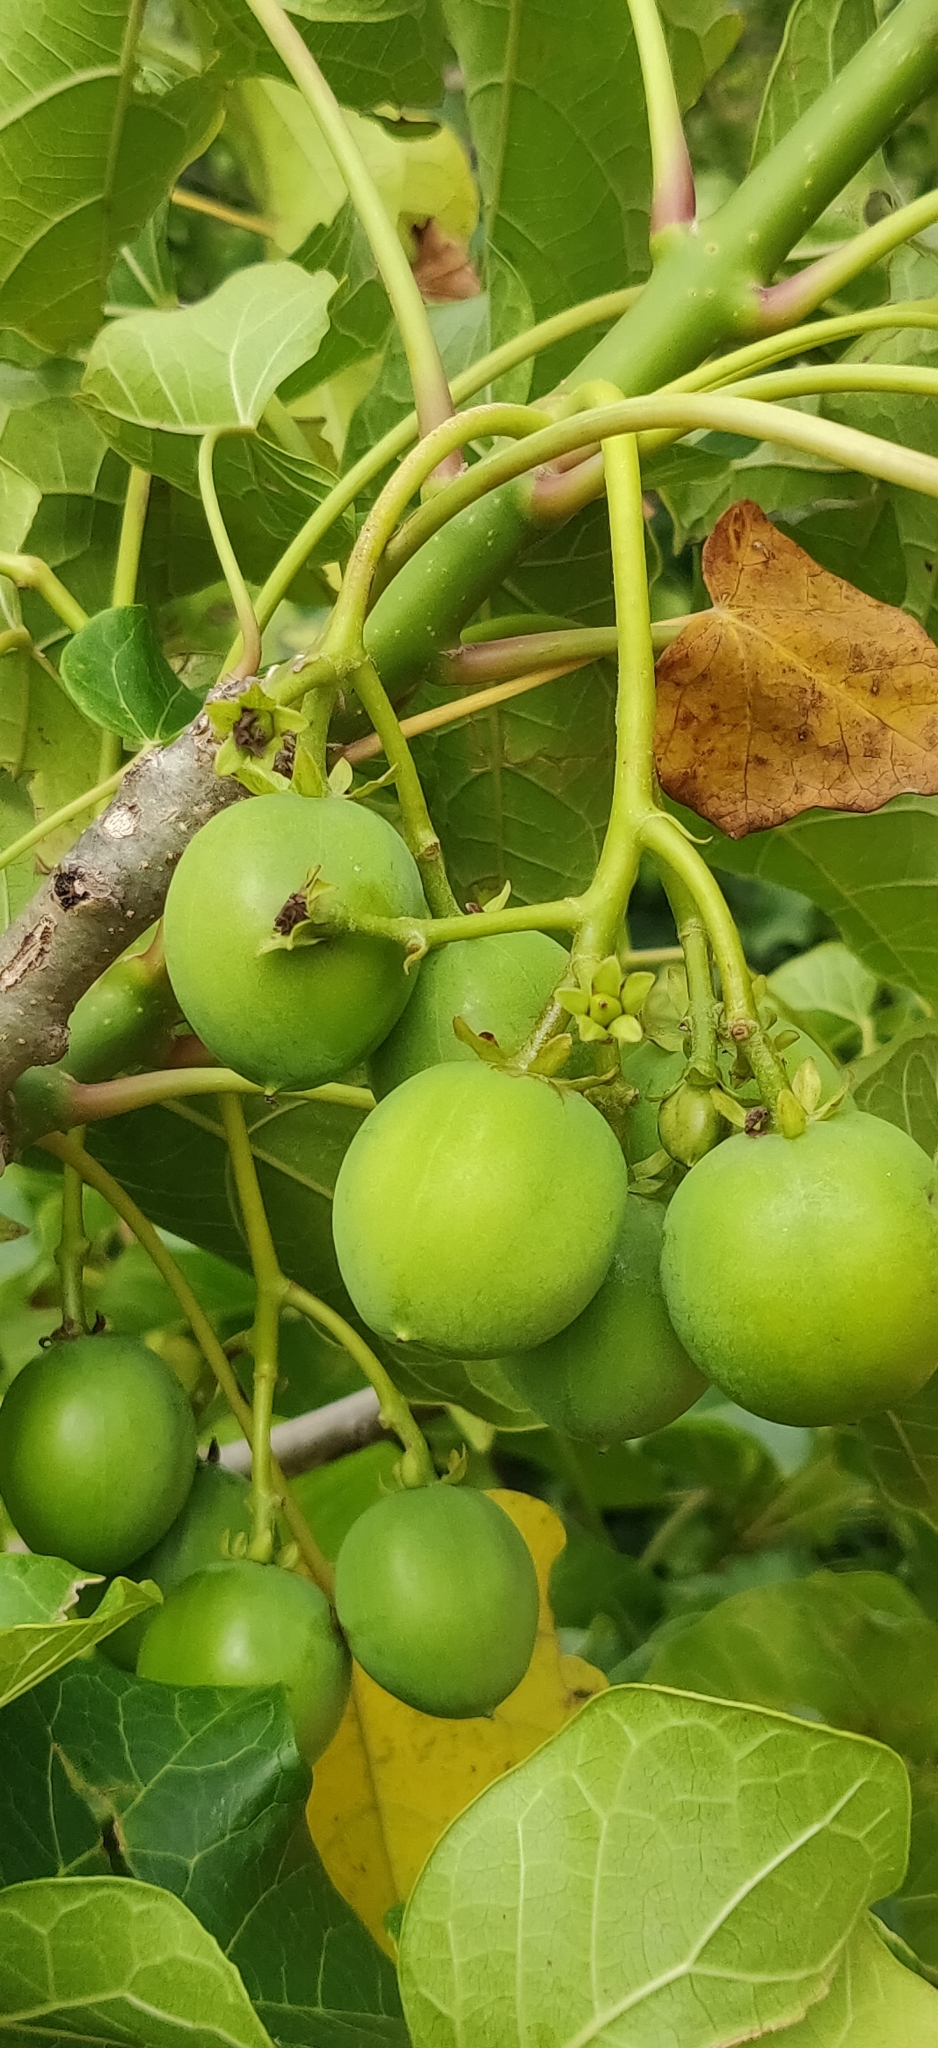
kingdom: Plantae
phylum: Tracheophyta
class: Magnoliopsida
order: Malpighiales
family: Euphorbiaceae
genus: Jatropha
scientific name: Jatropha curcas
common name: Barbados nut
